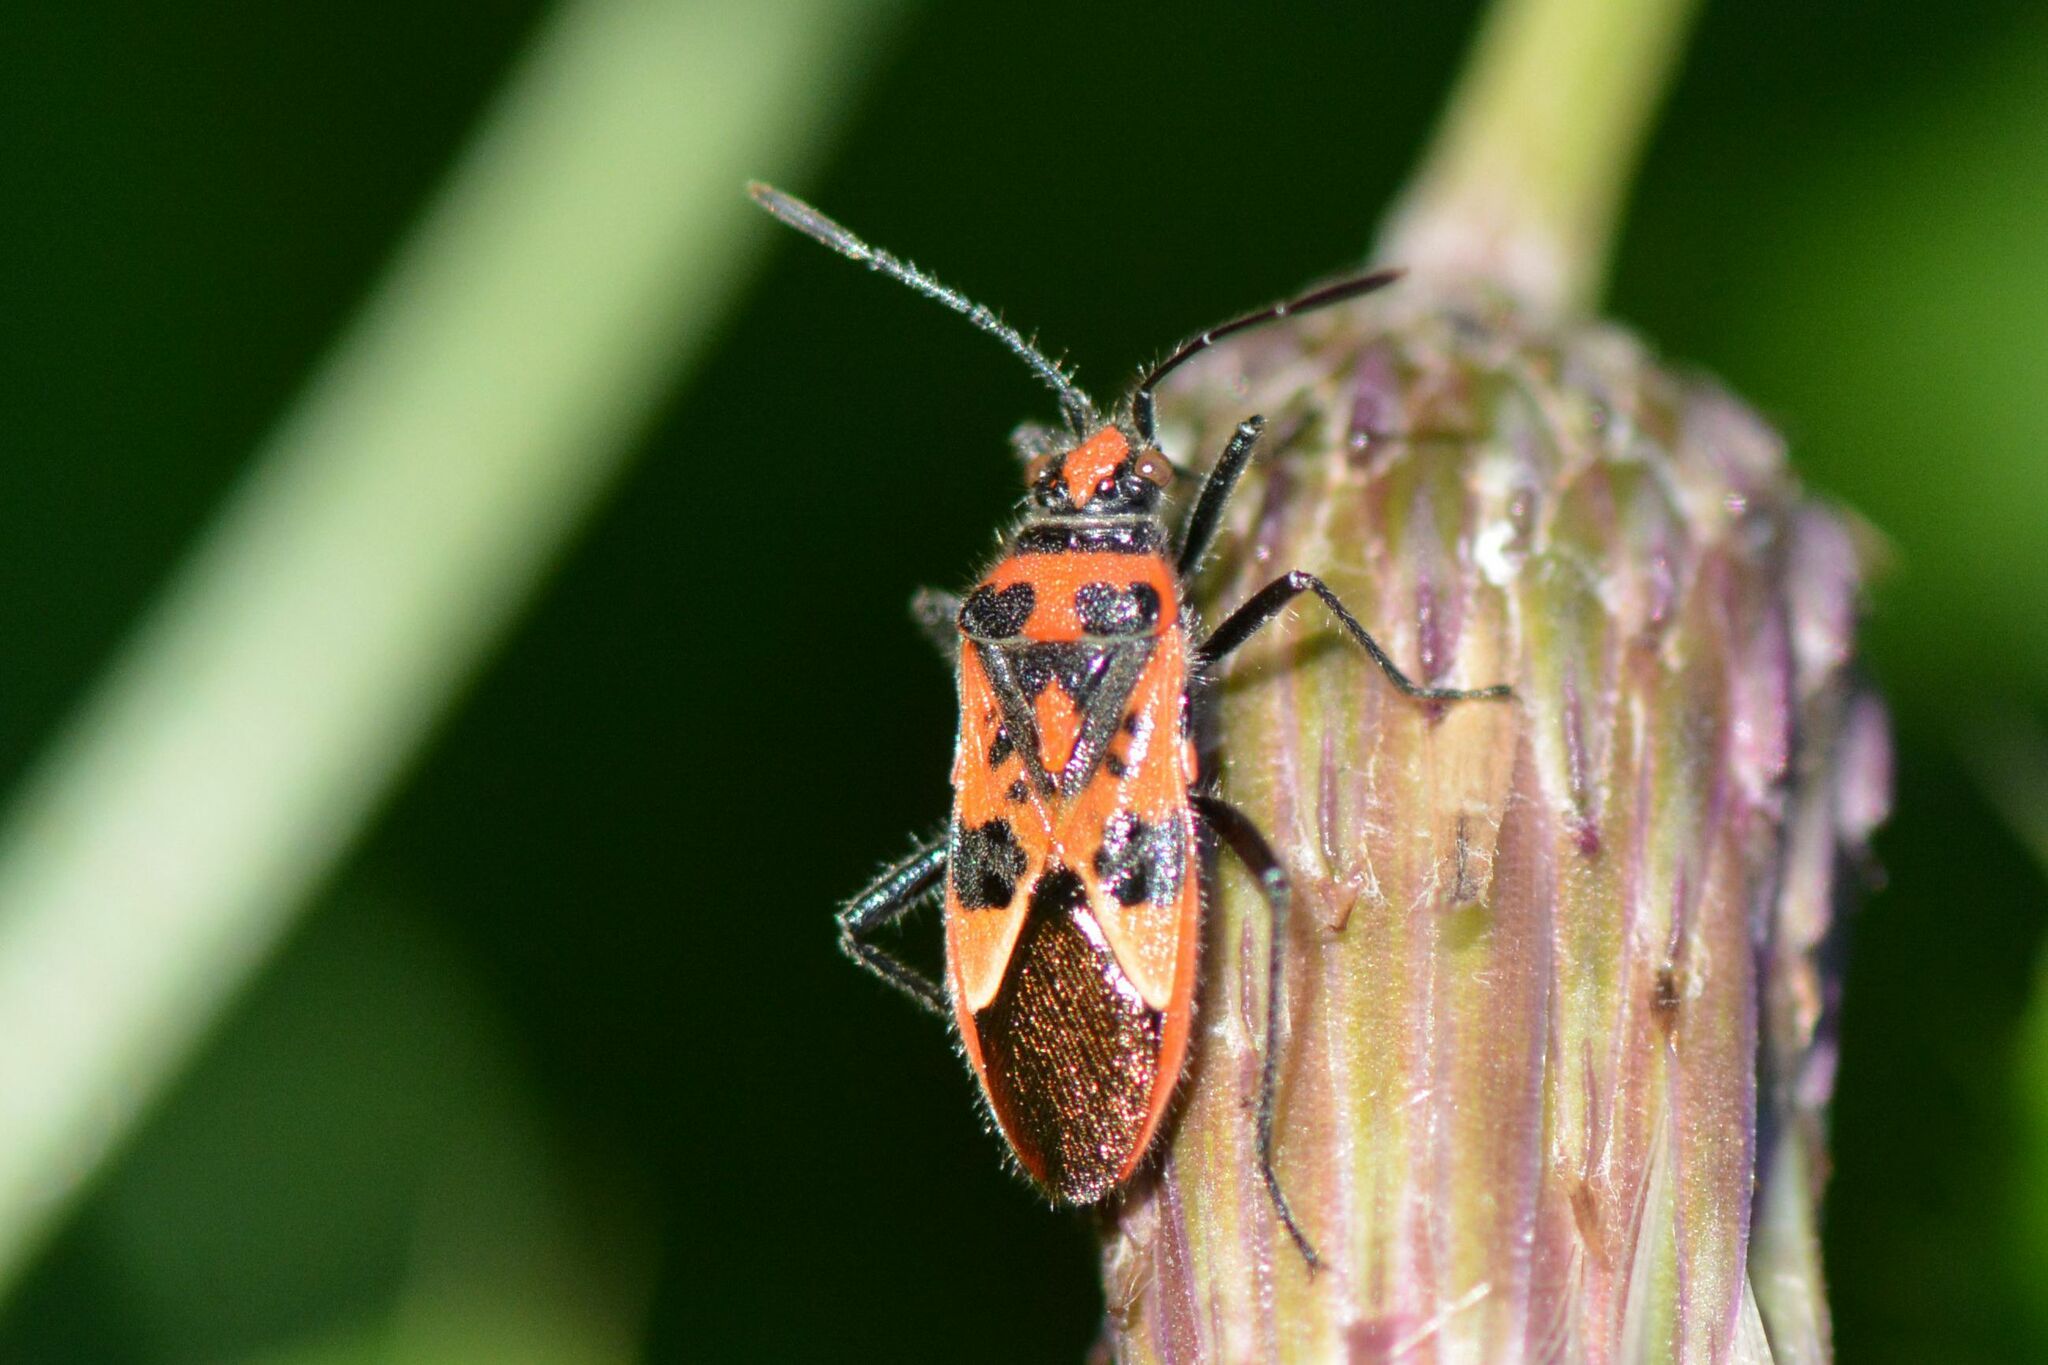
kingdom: Animalia
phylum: Arthropoda
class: Insecta
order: Hemiptera
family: Rhopalidae
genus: Corizus
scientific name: Corizus hyoscyami
